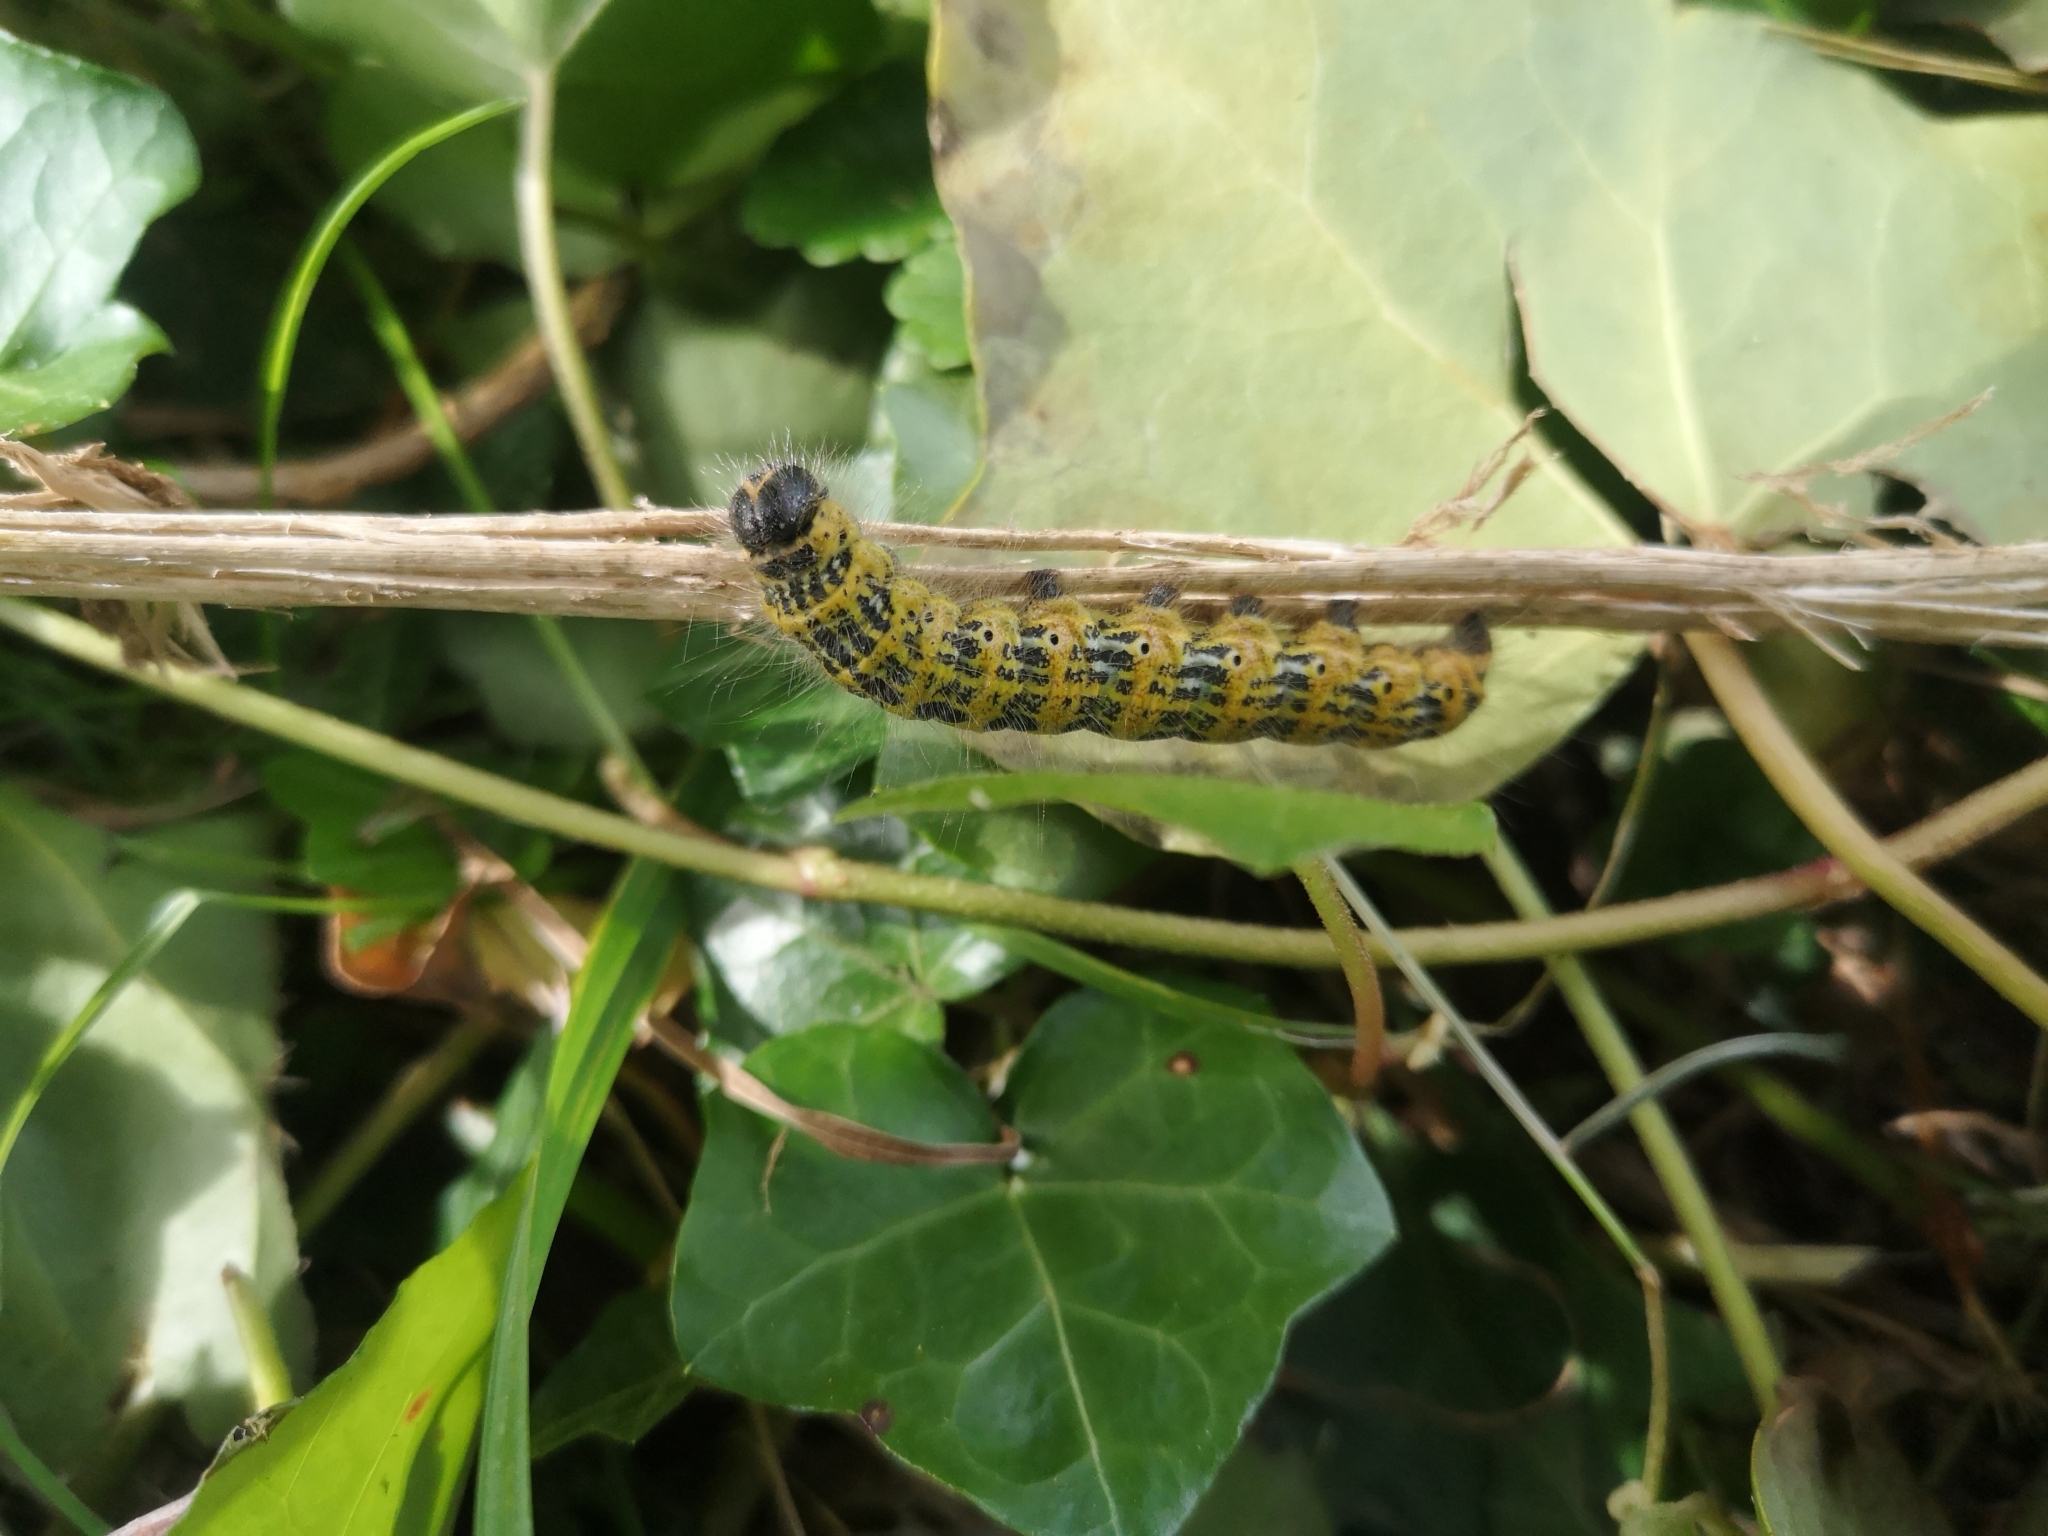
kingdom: Animalia
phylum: Arthropoda
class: Insecta
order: Lepidoptera
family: Notodontidae
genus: Phalera
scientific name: Phalera bucephala
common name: Buff-tip
